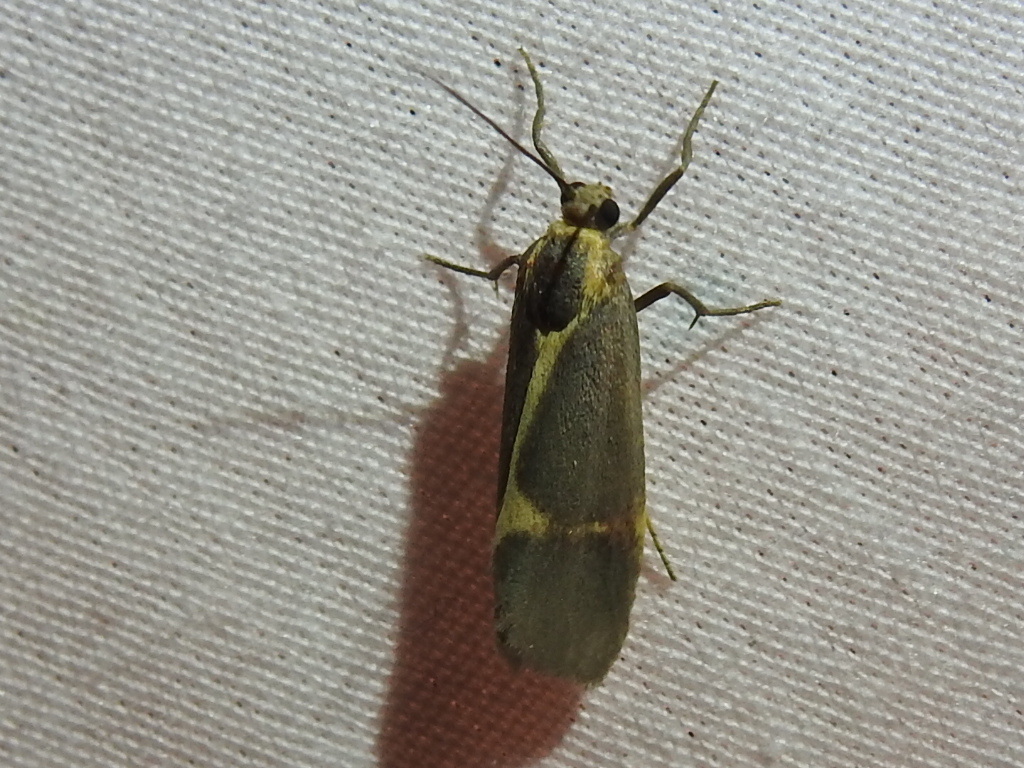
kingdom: Animalia
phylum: Arthropoda
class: Insecta
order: Lepidoptera
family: Erebidae
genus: Cisthene
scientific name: Cisthene barnesii
